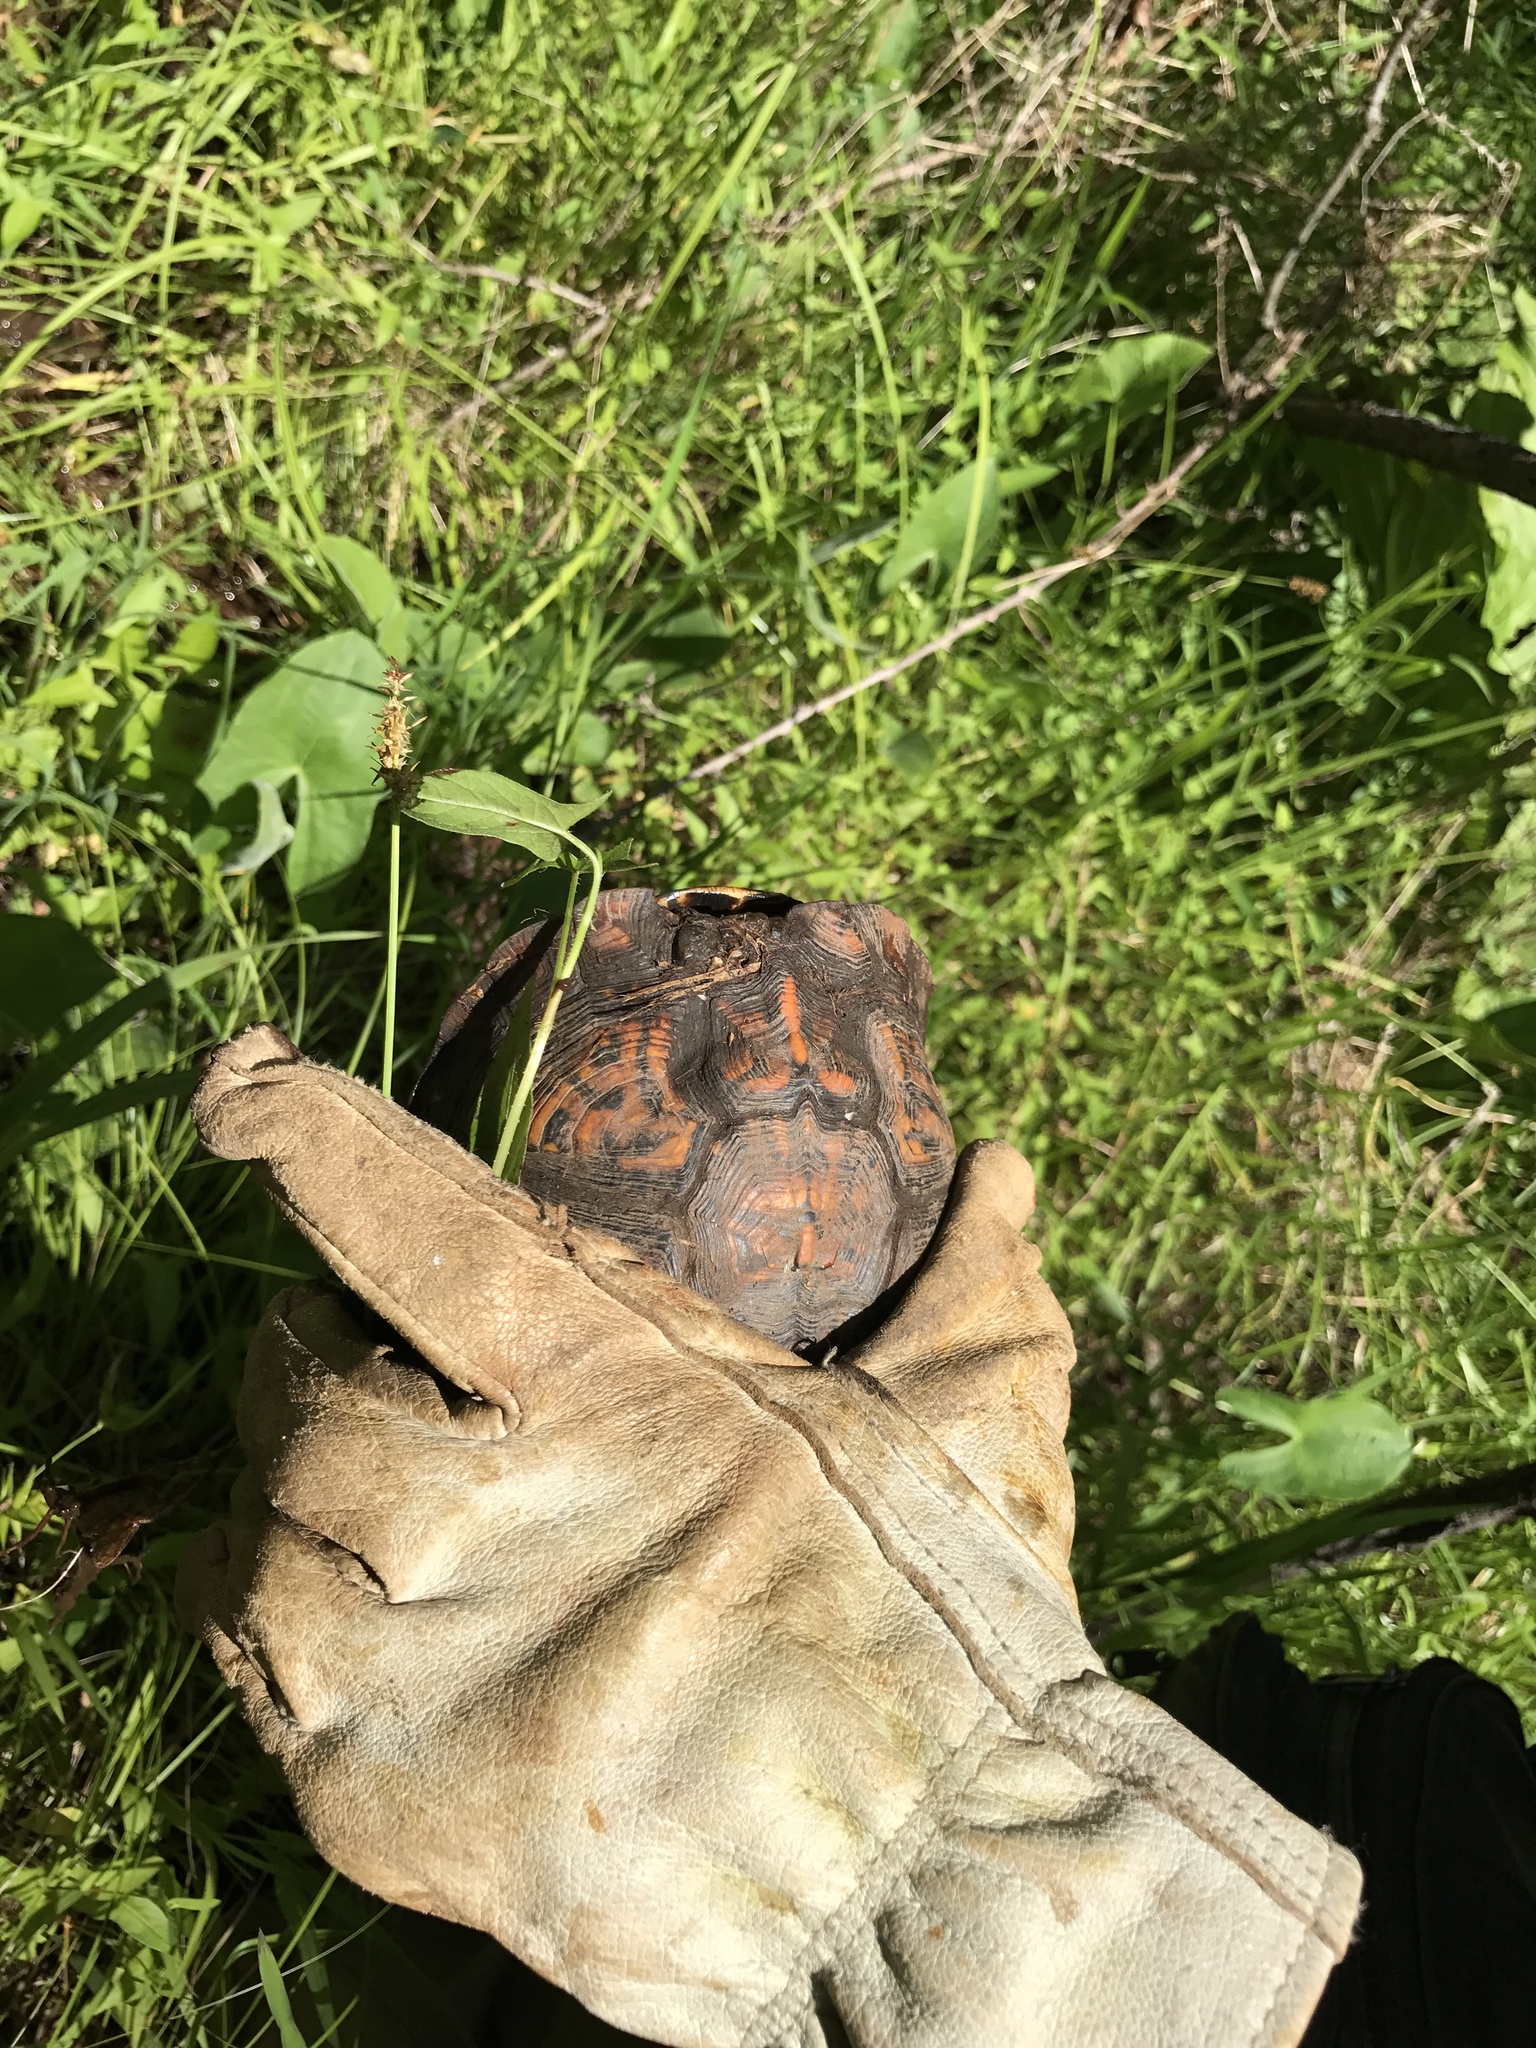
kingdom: Animalia
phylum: Chordata
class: Testudines
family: Emydidae
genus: Terrapene
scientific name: Terrapene carolina
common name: Common box turtle
